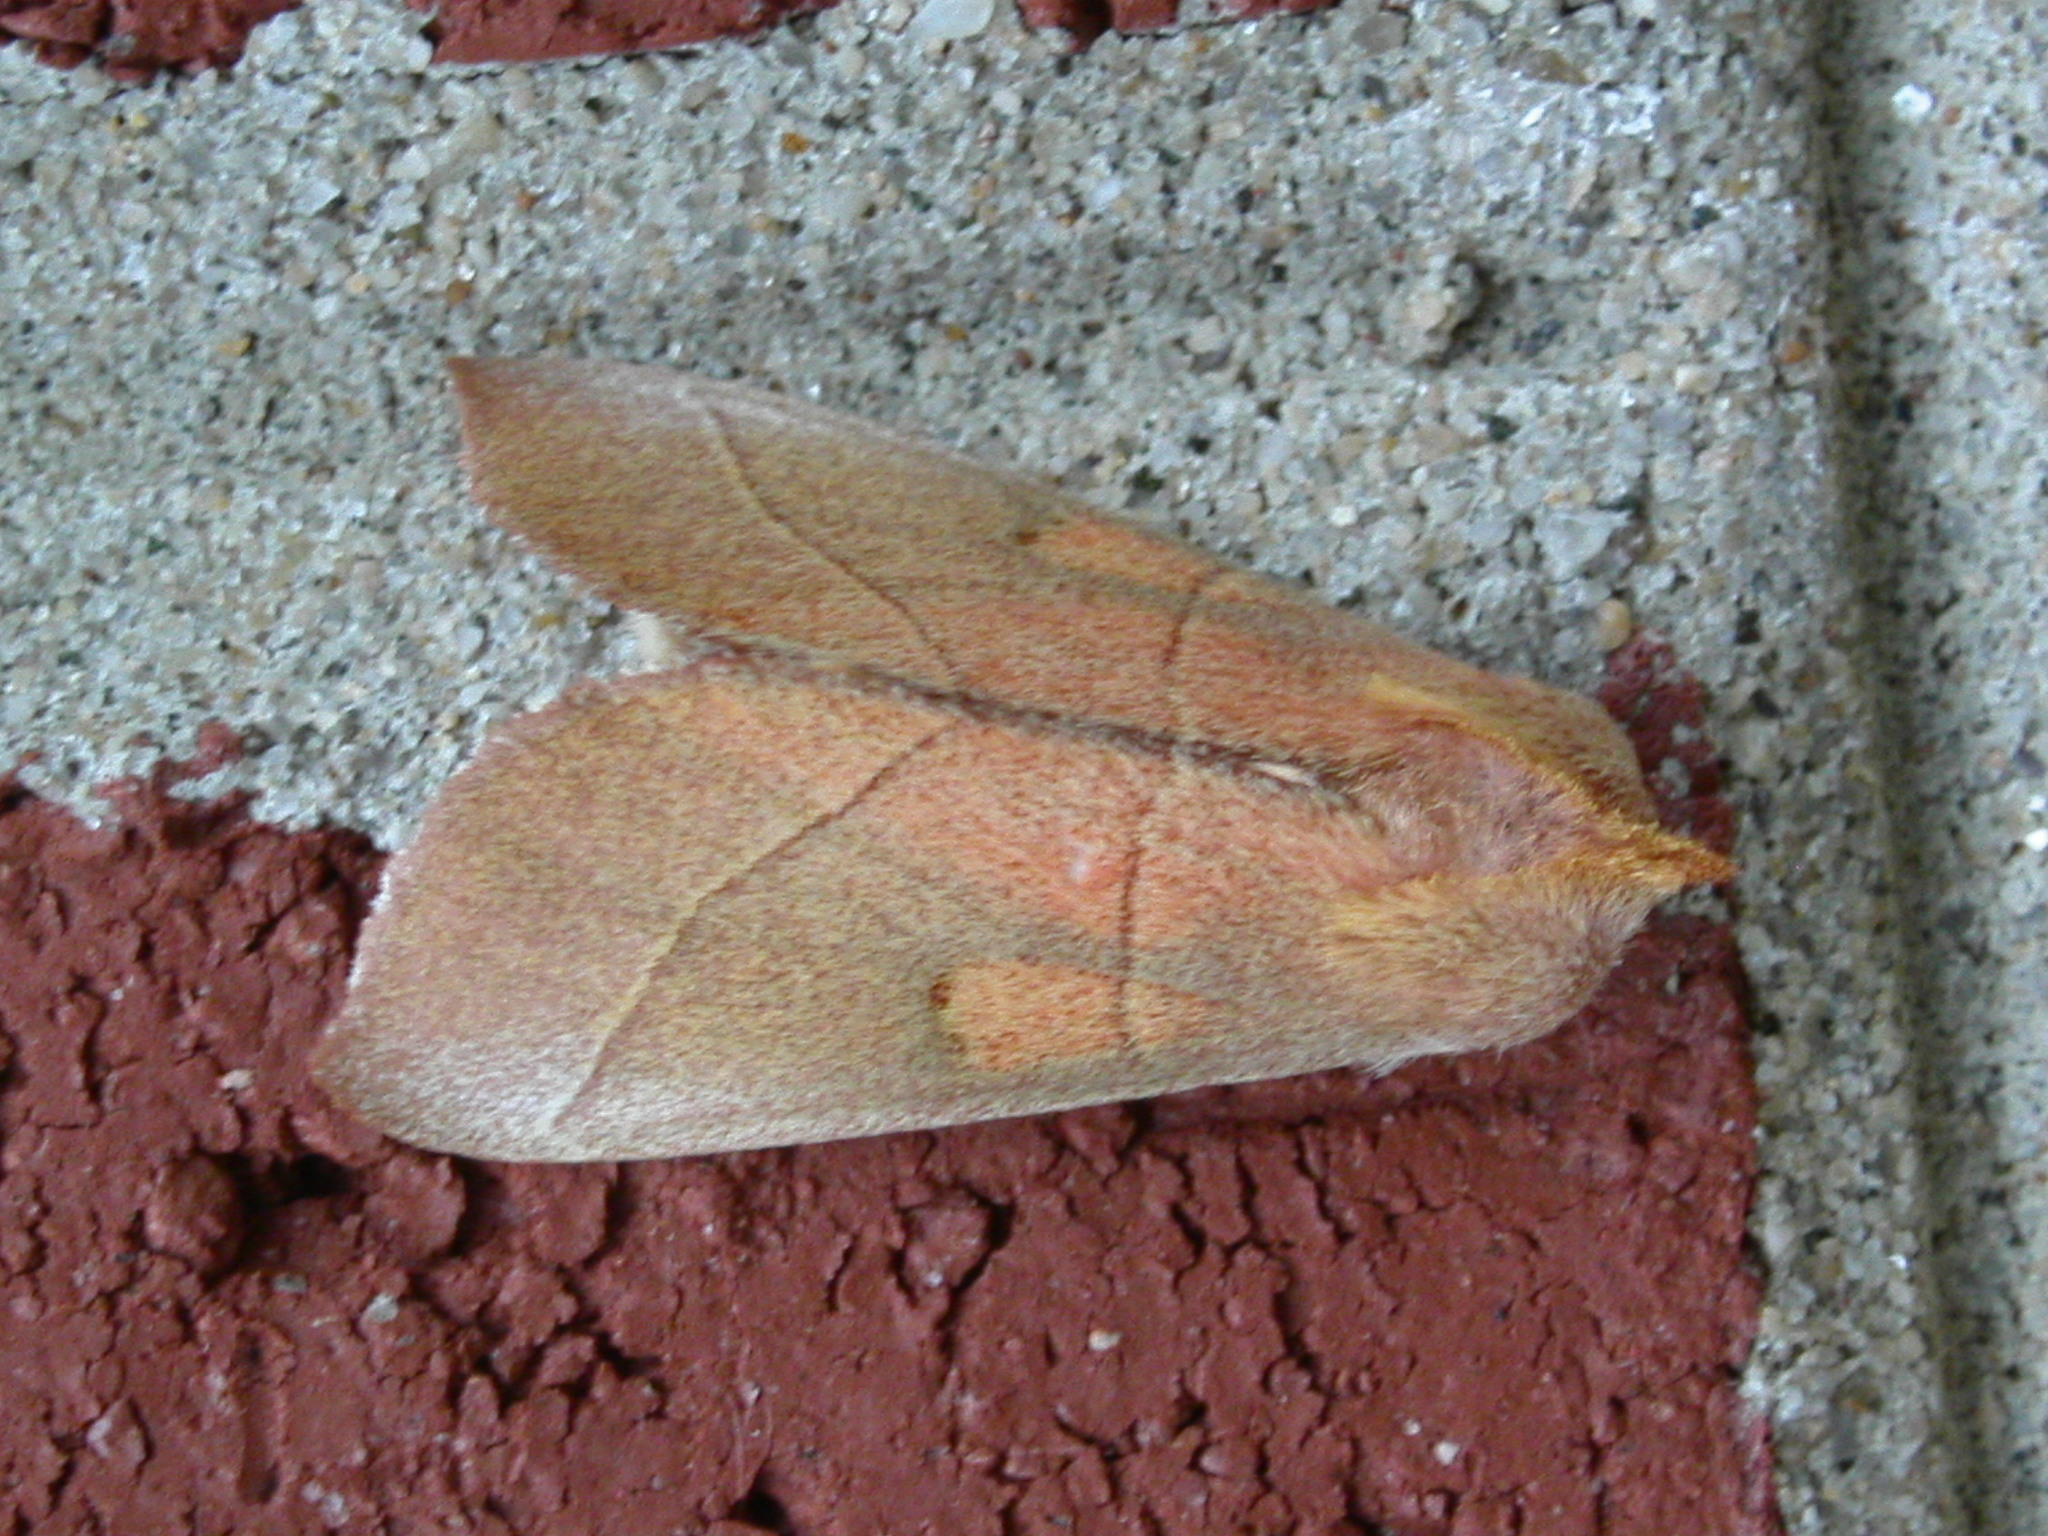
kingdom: Animalia
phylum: Arthropoda
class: Insecta
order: Lepidoptera
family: Notodontidae
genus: Nadata
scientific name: Nadata gibbosa
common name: White-dotted prominent
